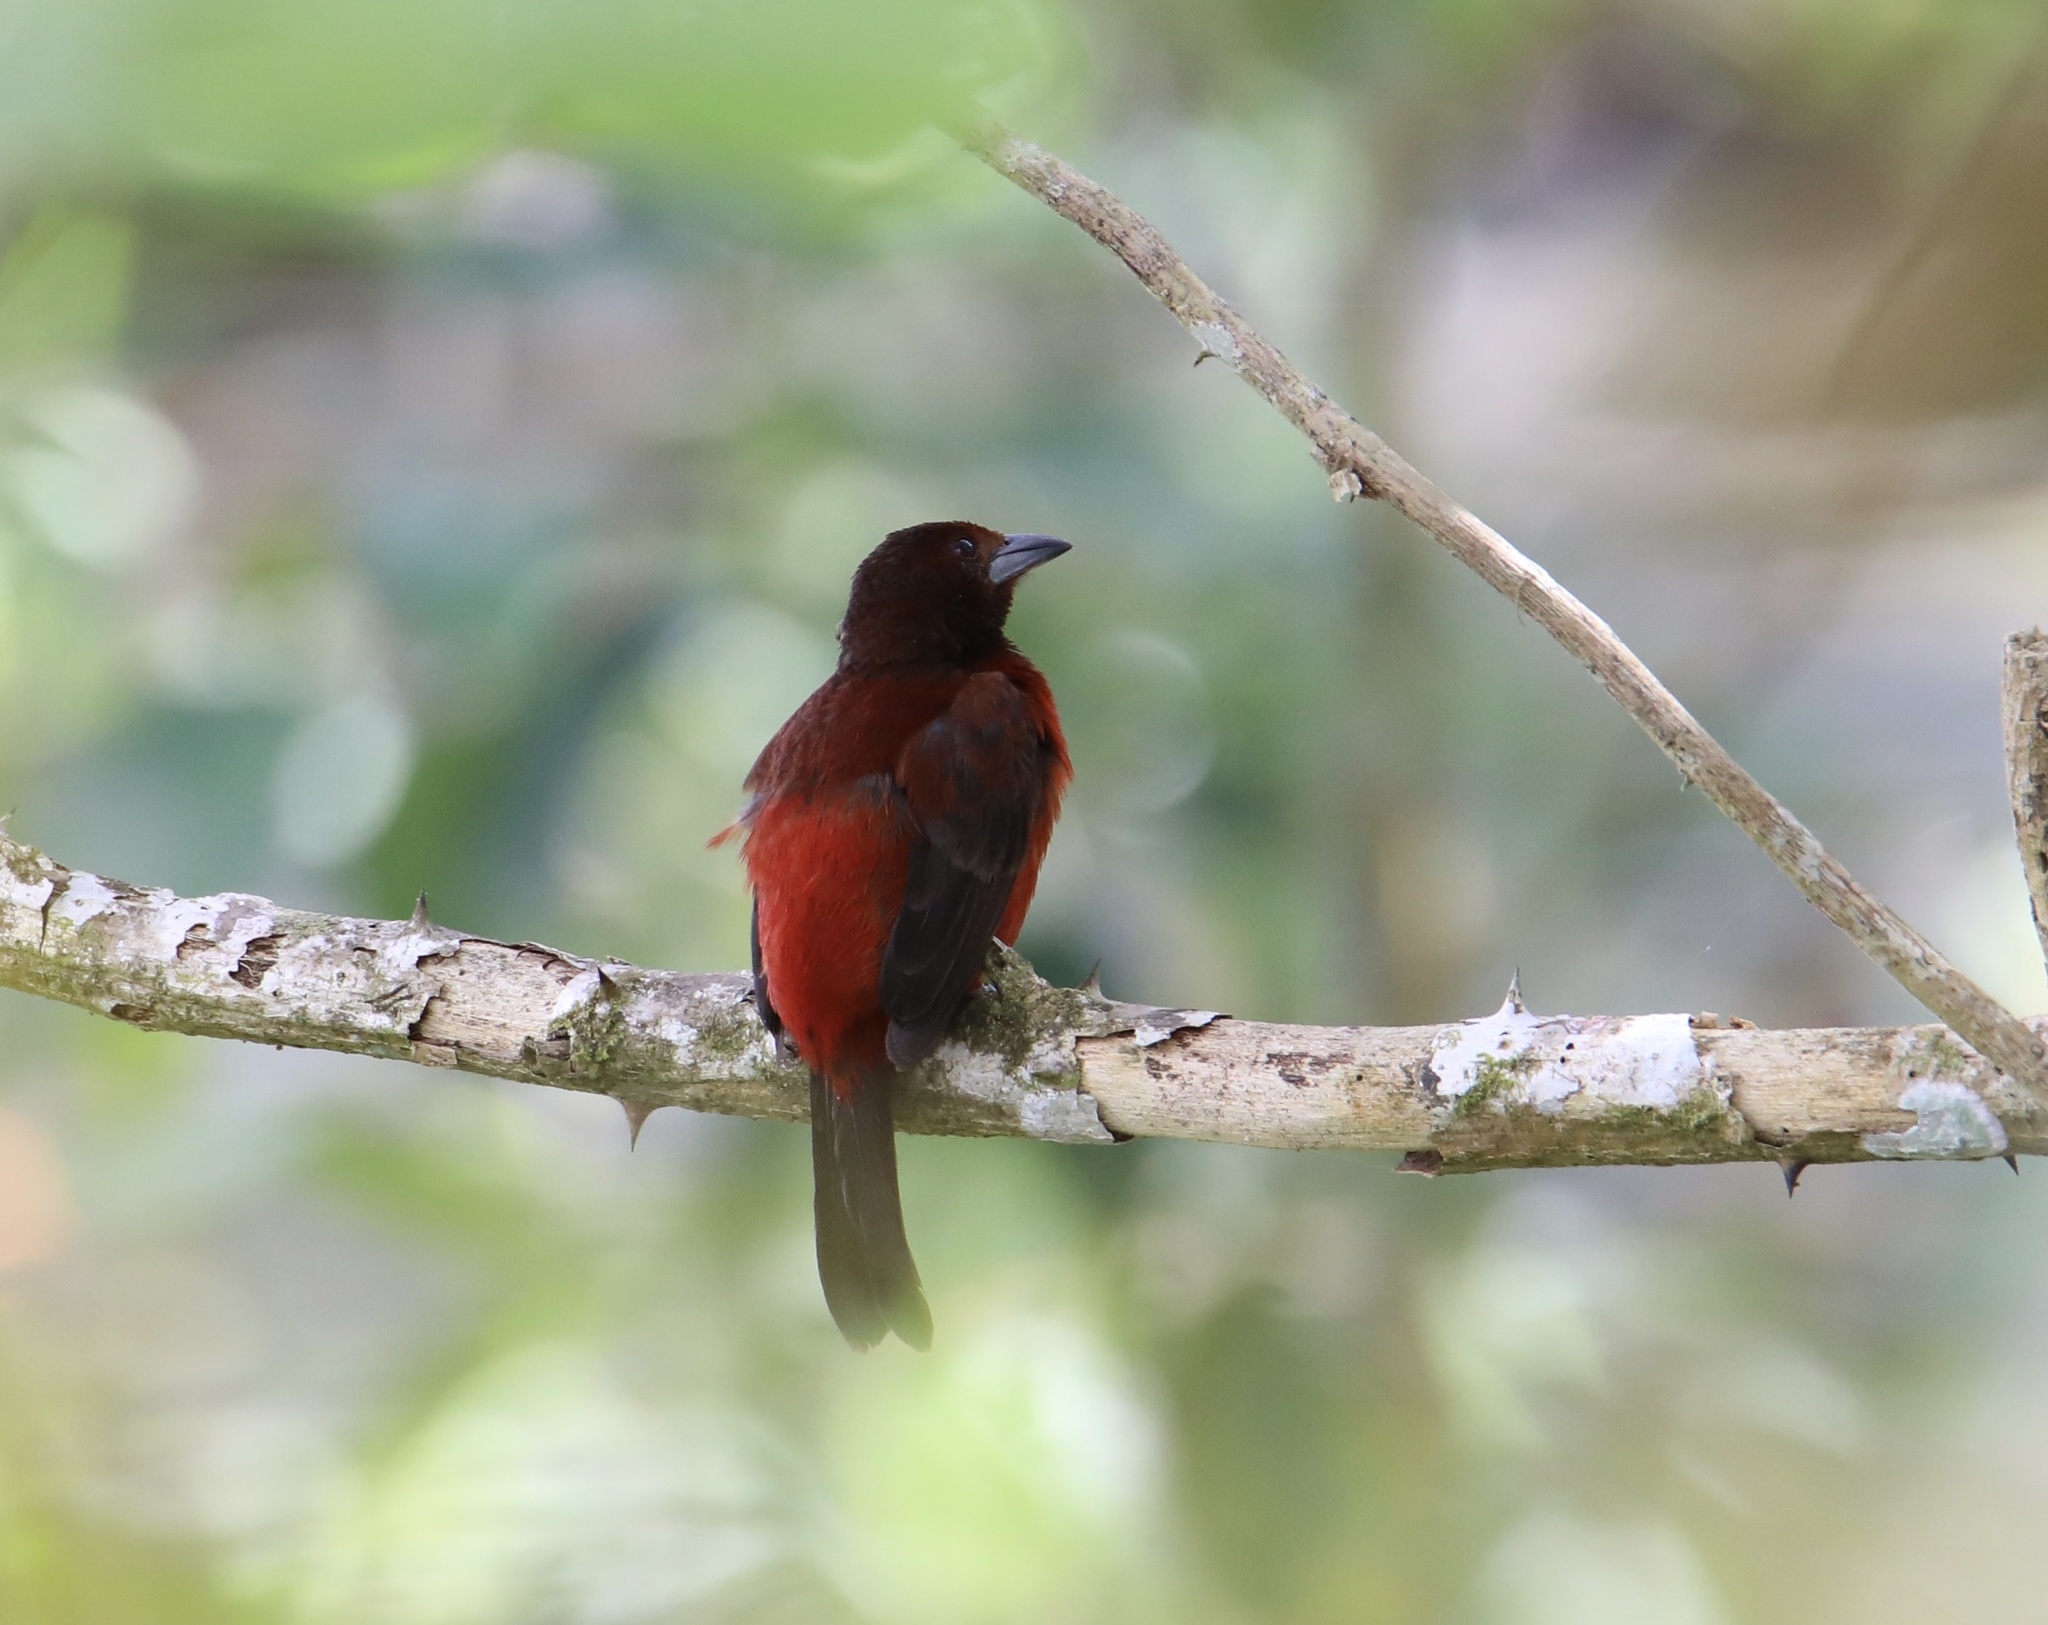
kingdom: Animalia
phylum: Chordata
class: Aves
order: Passeriformes
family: Thraupidae
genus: Ramphocelus
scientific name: Ramphocelus dimidiatus
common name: Crimson-backed tanager
